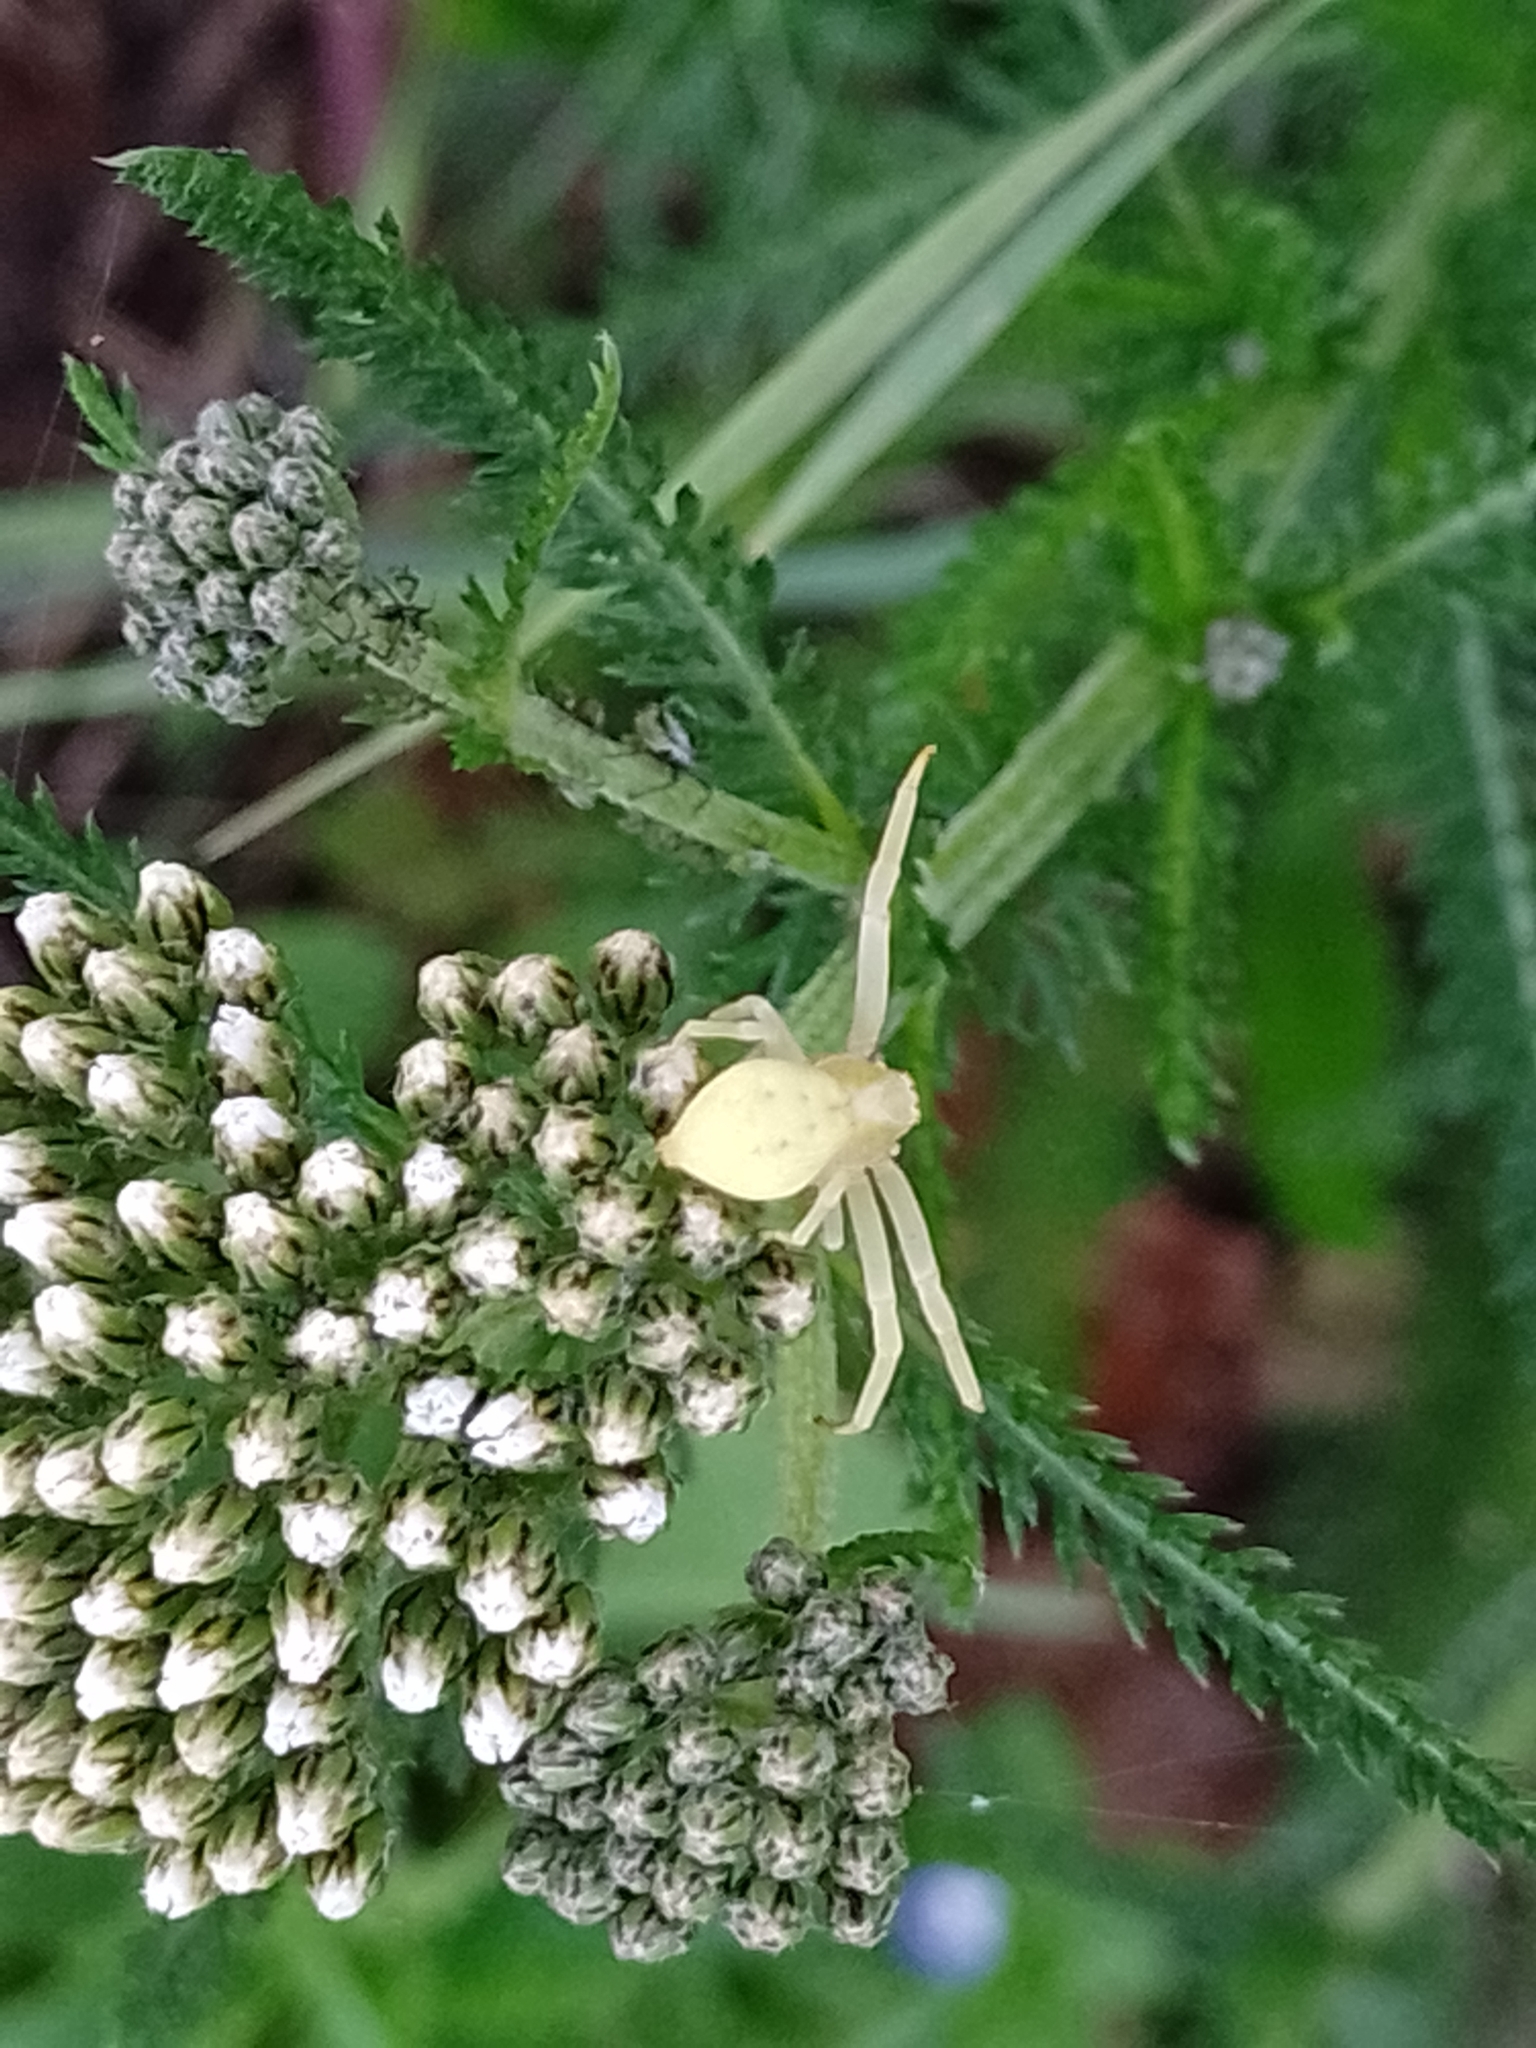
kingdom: Animalia
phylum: Arthropoda
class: Arachnida
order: Araneae
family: Thomisidae
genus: Misumena
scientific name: Misumena vatia
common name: Goldenrod crab spider
